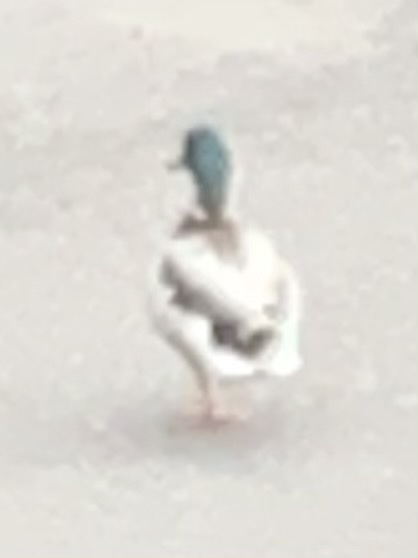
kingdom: Animalia
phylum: Chordata
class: Aves
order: Anseriformes
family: Anatidae
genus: Anas
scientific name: Anas platyrhynchos
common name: Mallard
